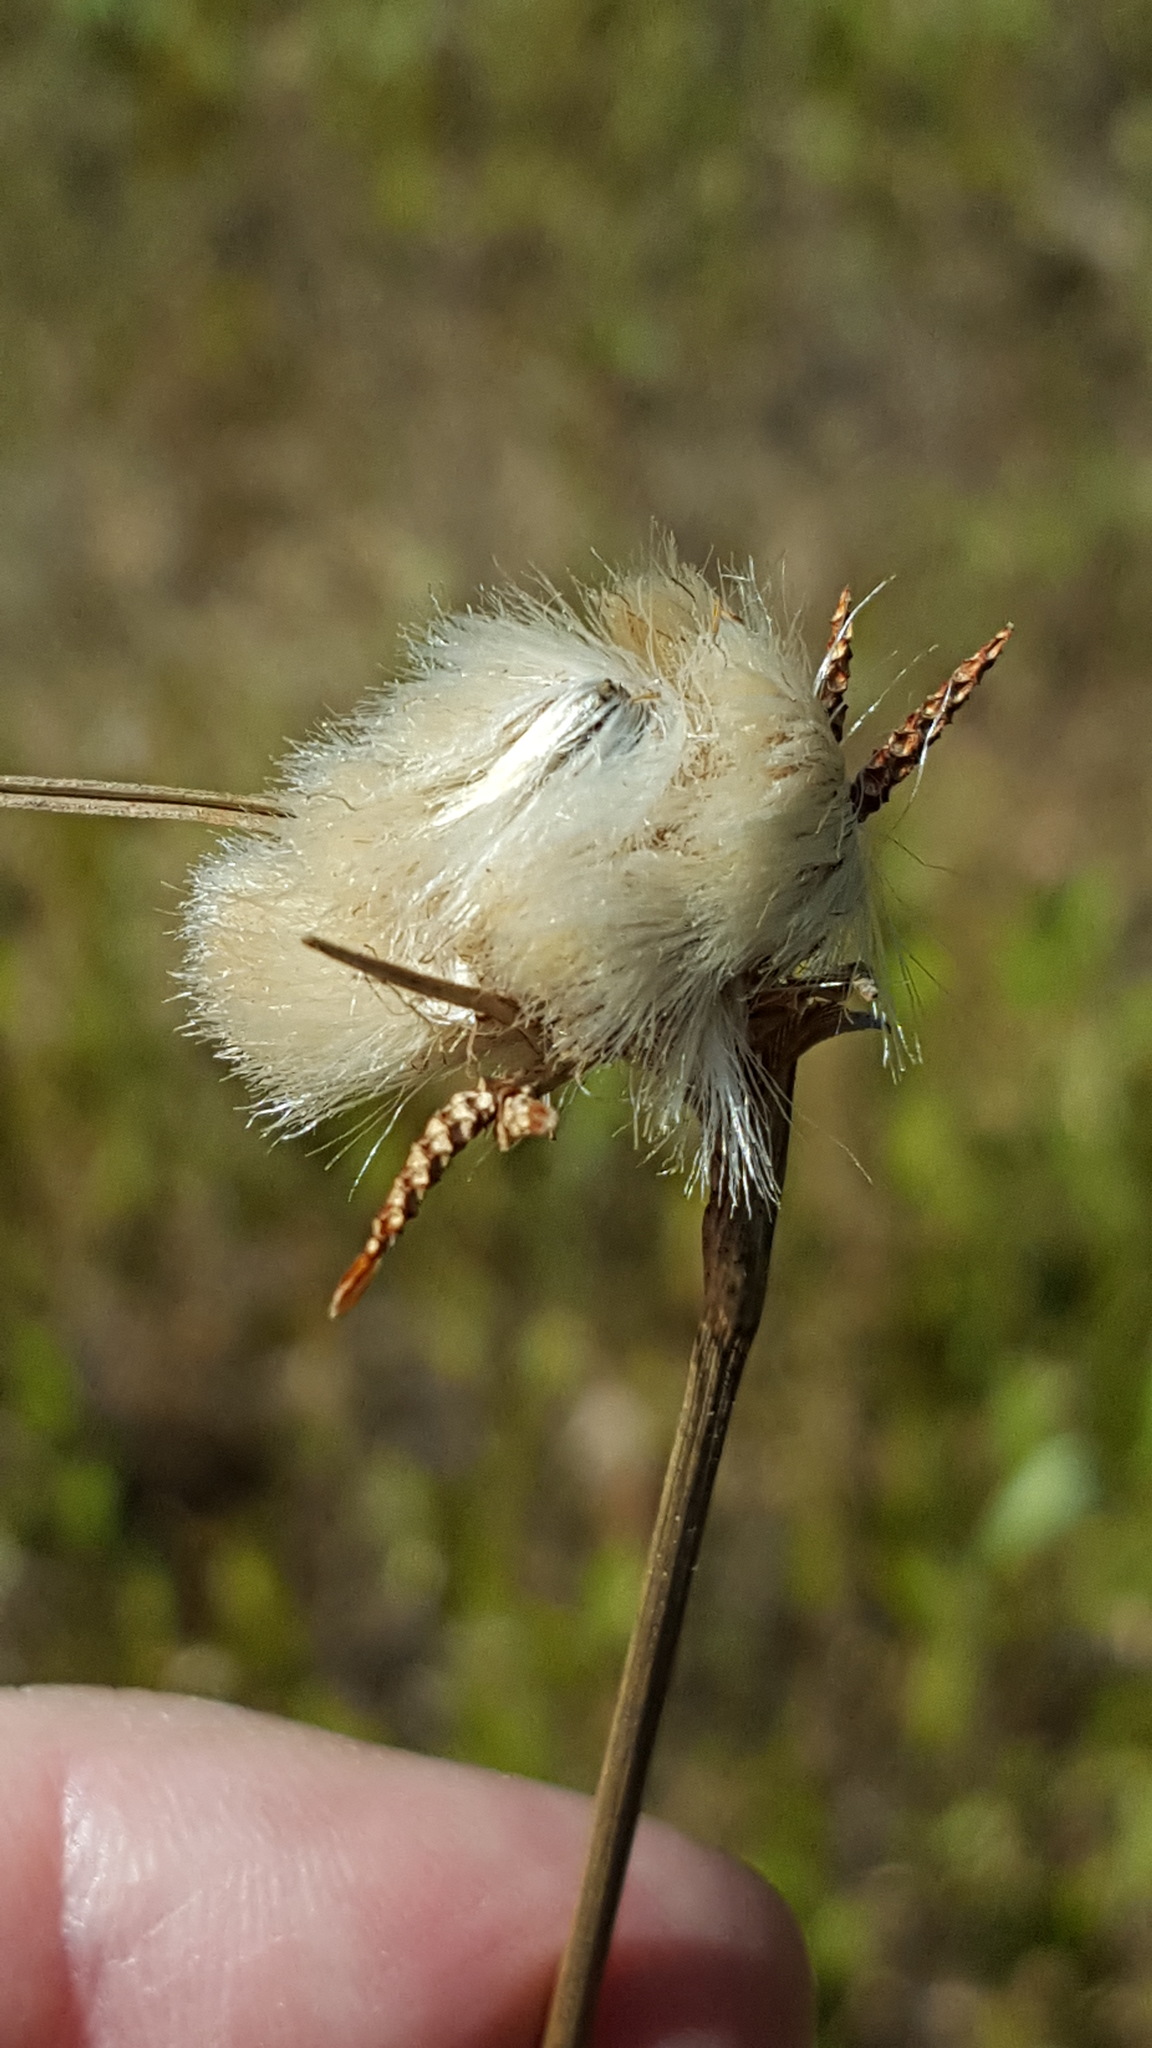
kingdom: Plantae
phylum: Tracheophyta
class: Liliopsida
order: Poales
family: Cyperaceae
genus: Eriophorum
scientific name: Eriophorum virginicum
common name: Tawny cottongrass
